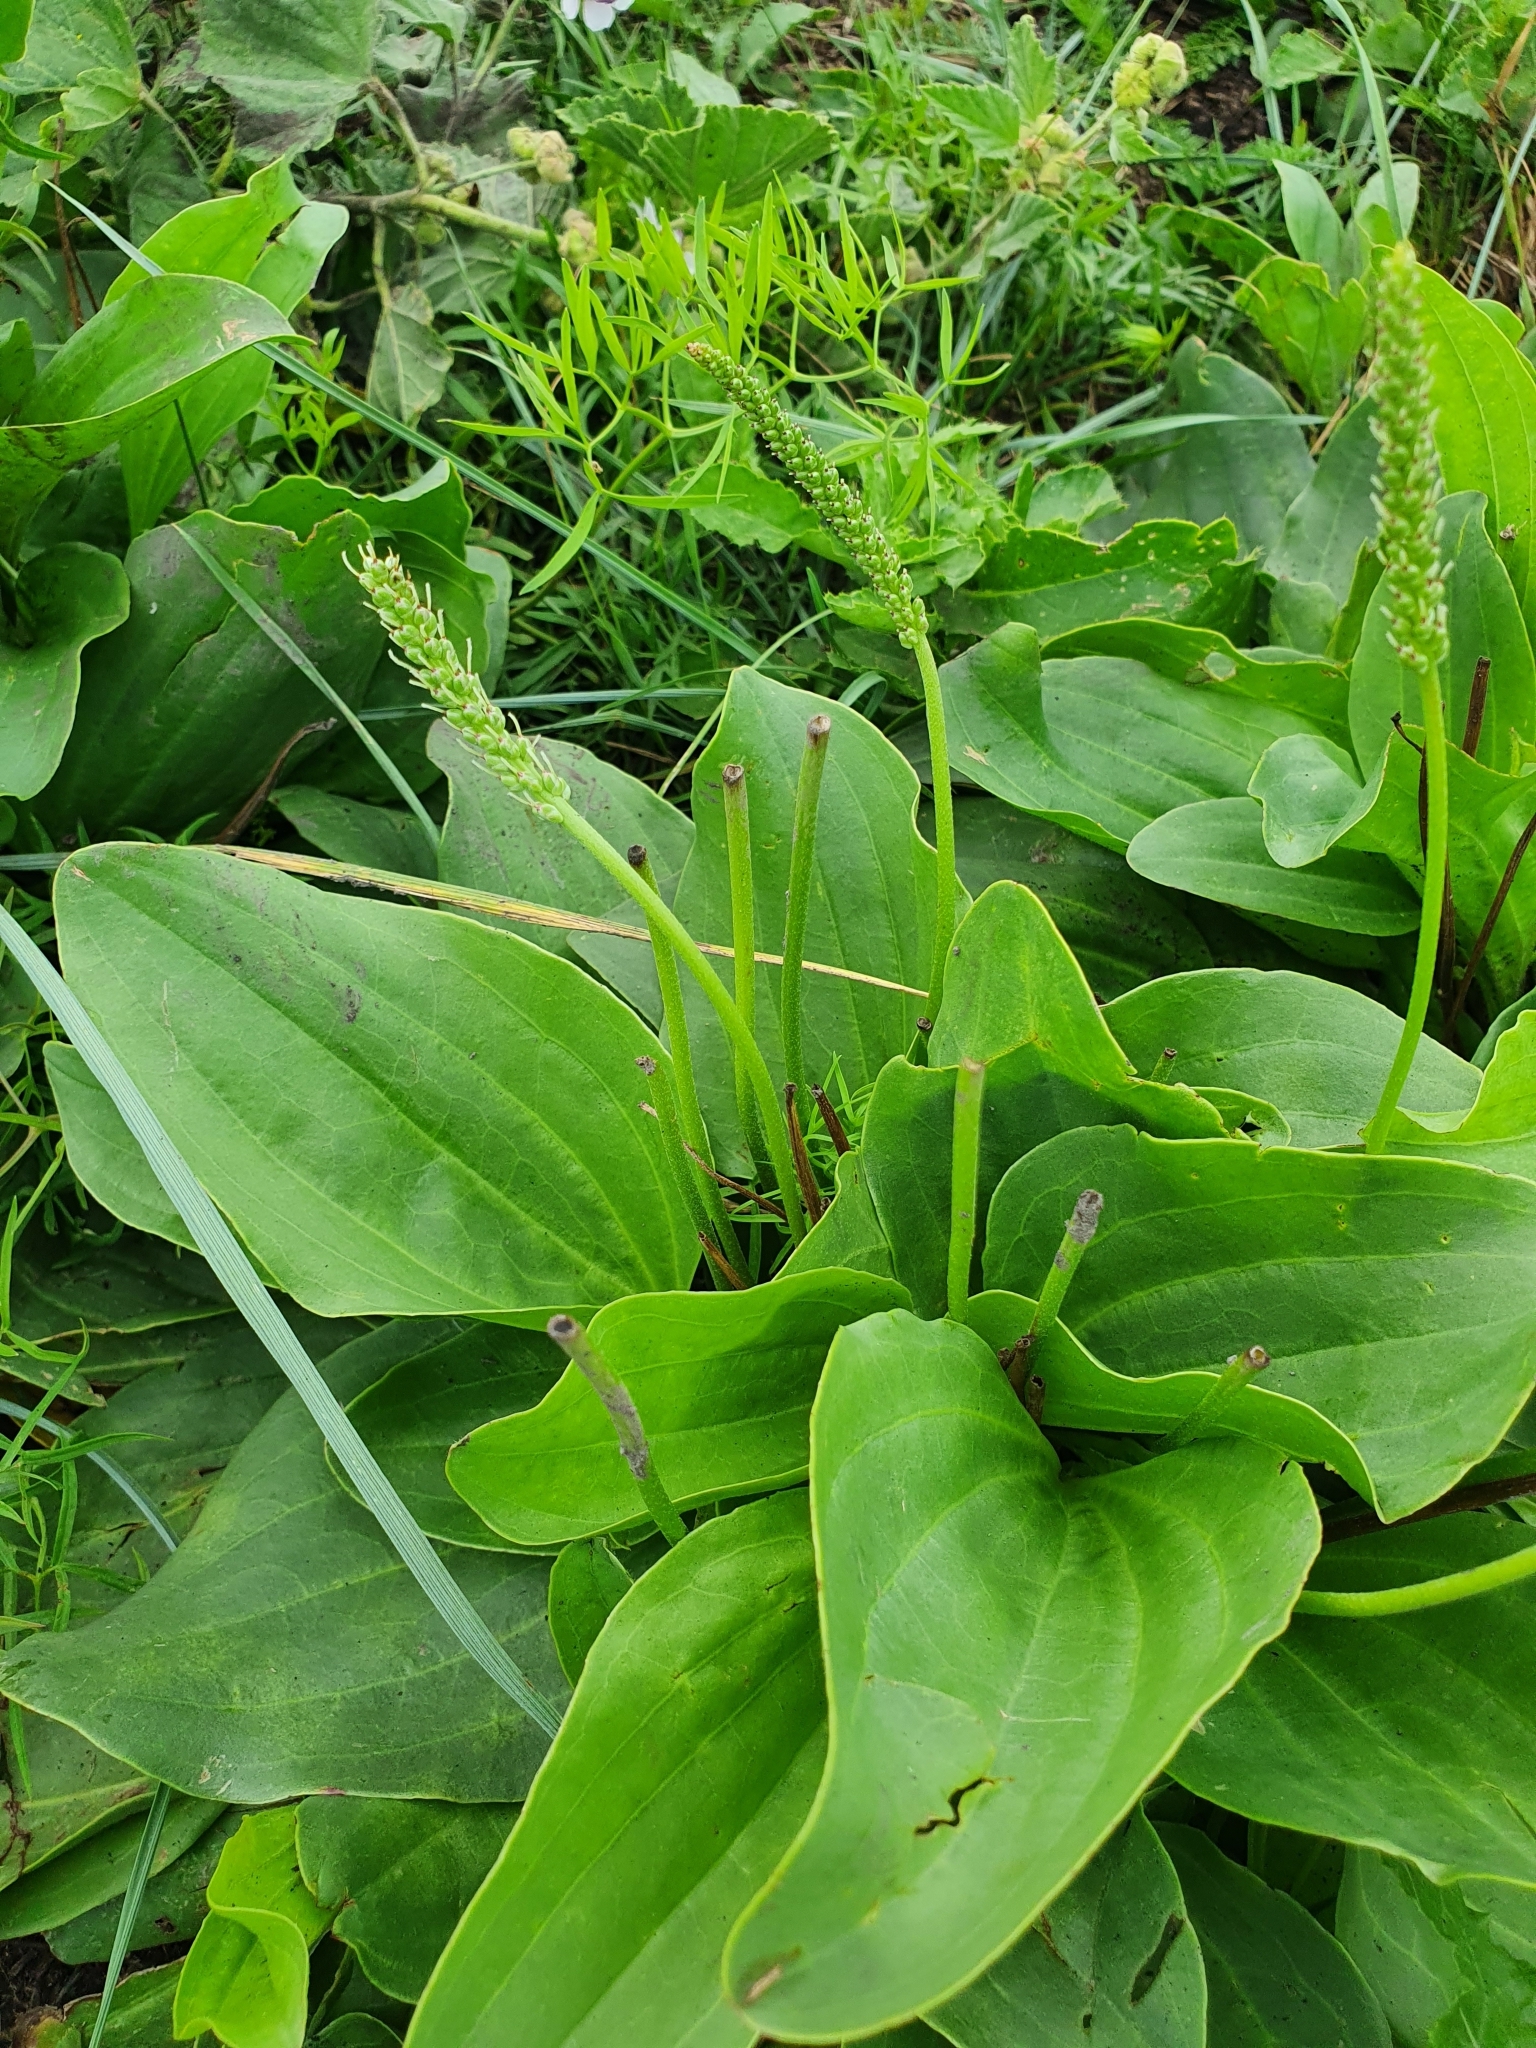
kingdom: Plantae
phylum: Tracheophyta
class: Magnoliopsida
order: Lamiales
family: Plantaginaceae
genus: Plantago
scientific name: Plantago cornuti
